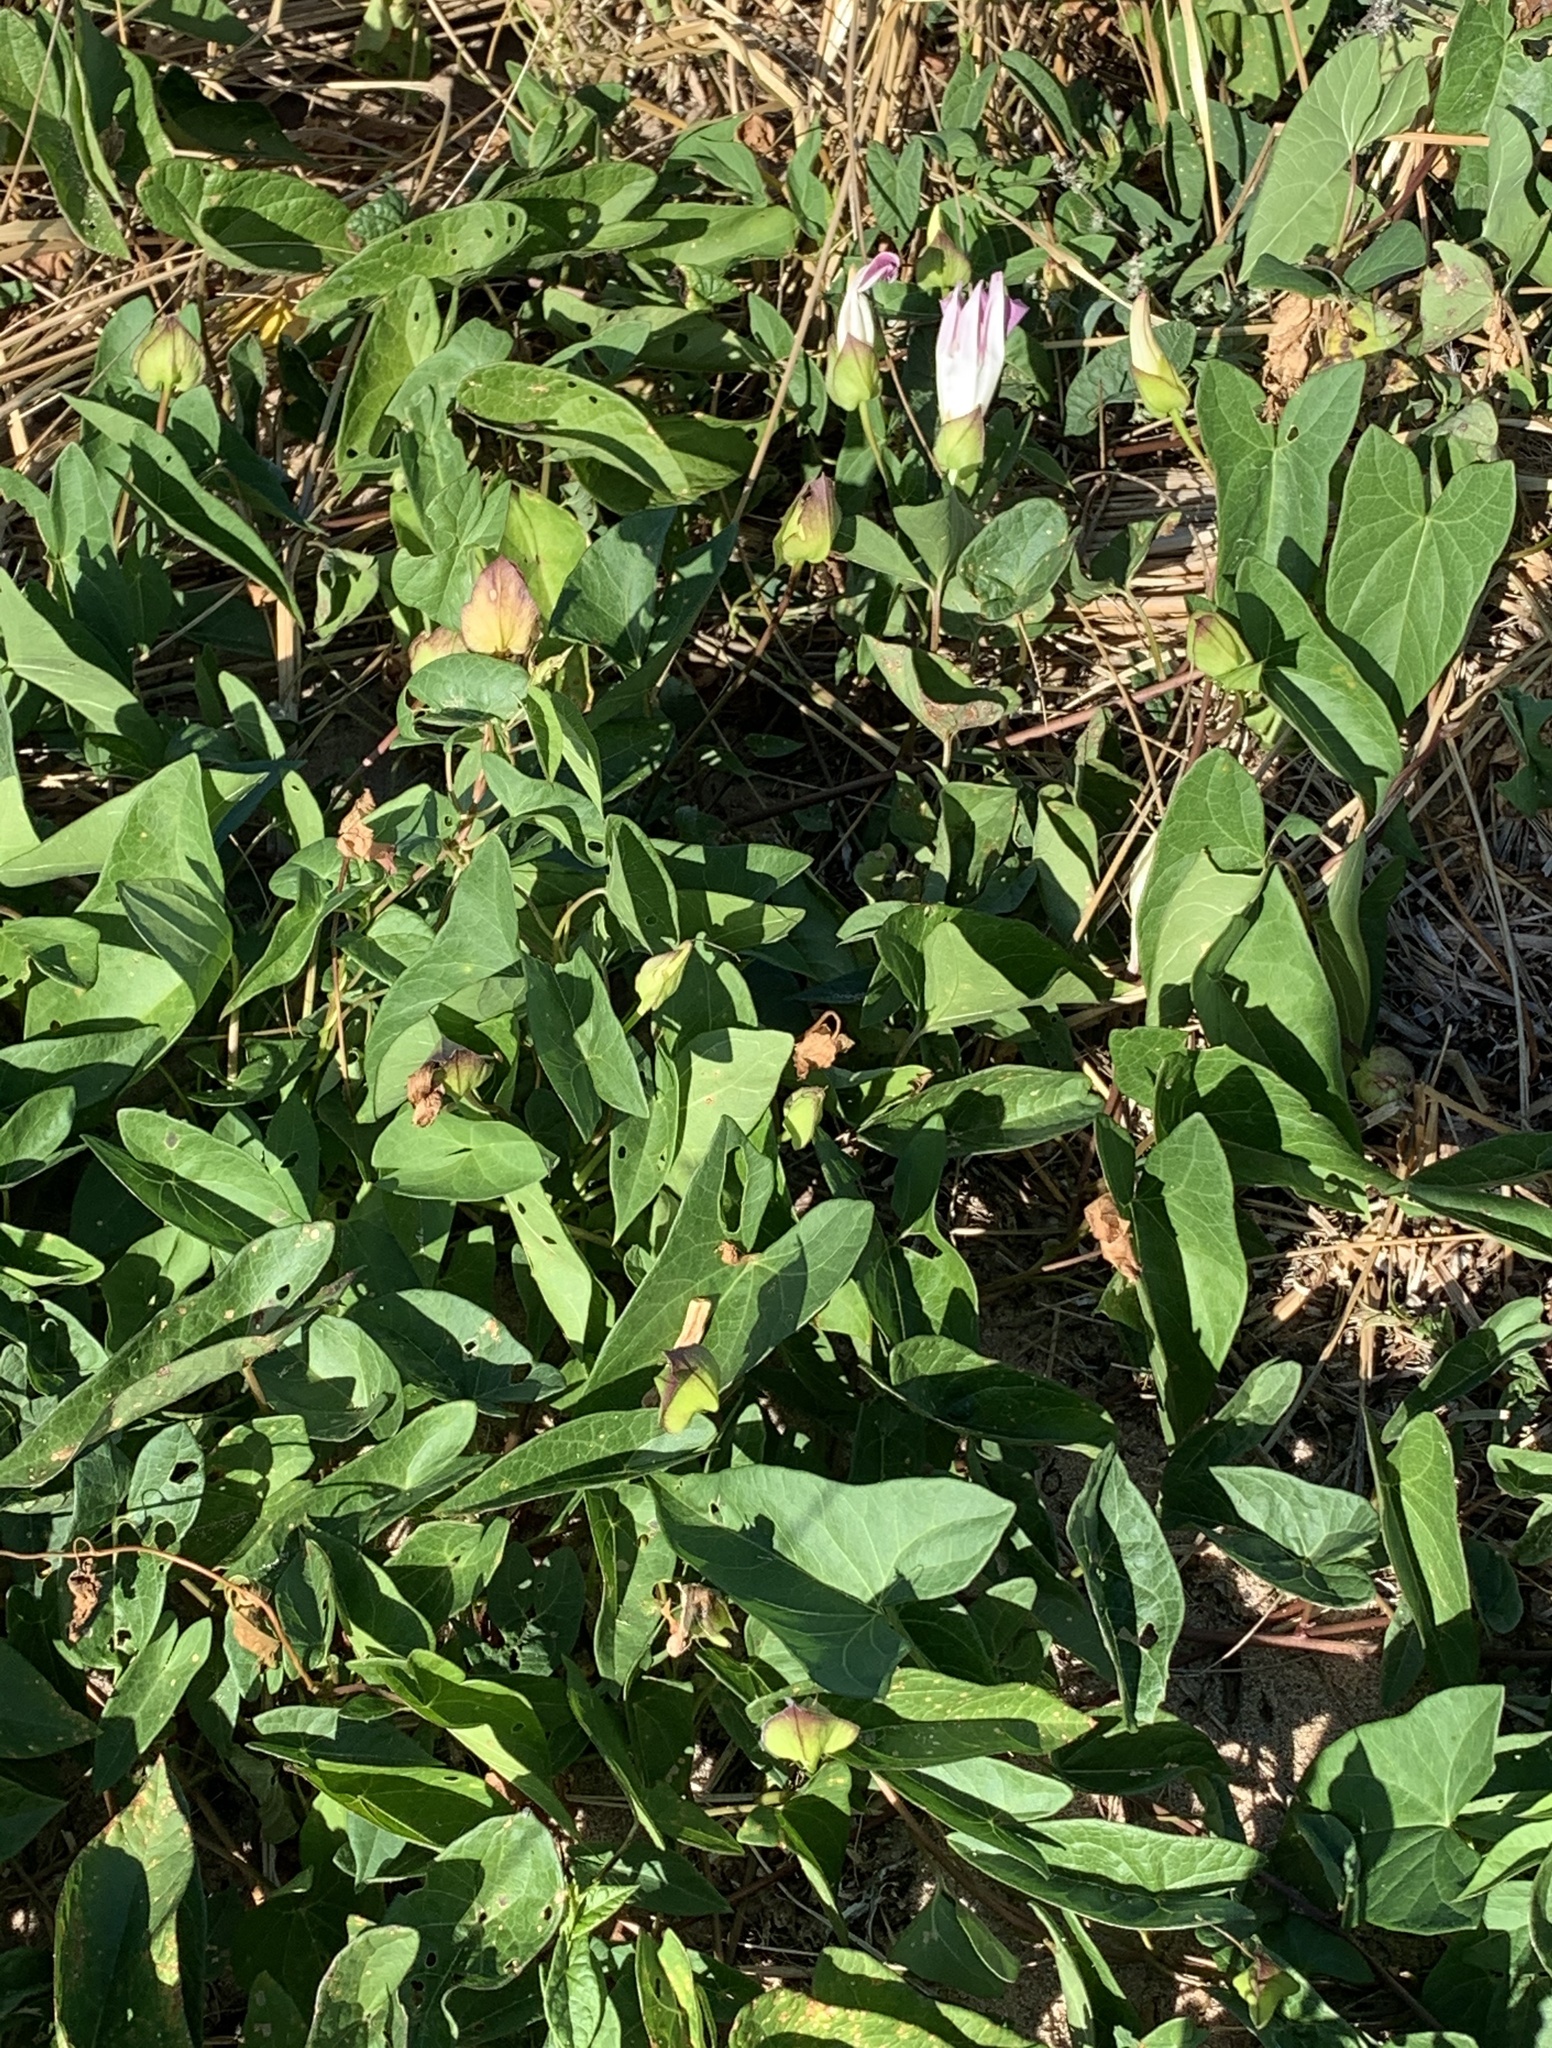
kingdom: Plantae
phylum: Tracheophyta
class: Magnoliopsida
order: Solanales
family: Convolvulaceae
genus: Calystegia
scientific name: Calystegia sepium
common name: Hedge bindweed
